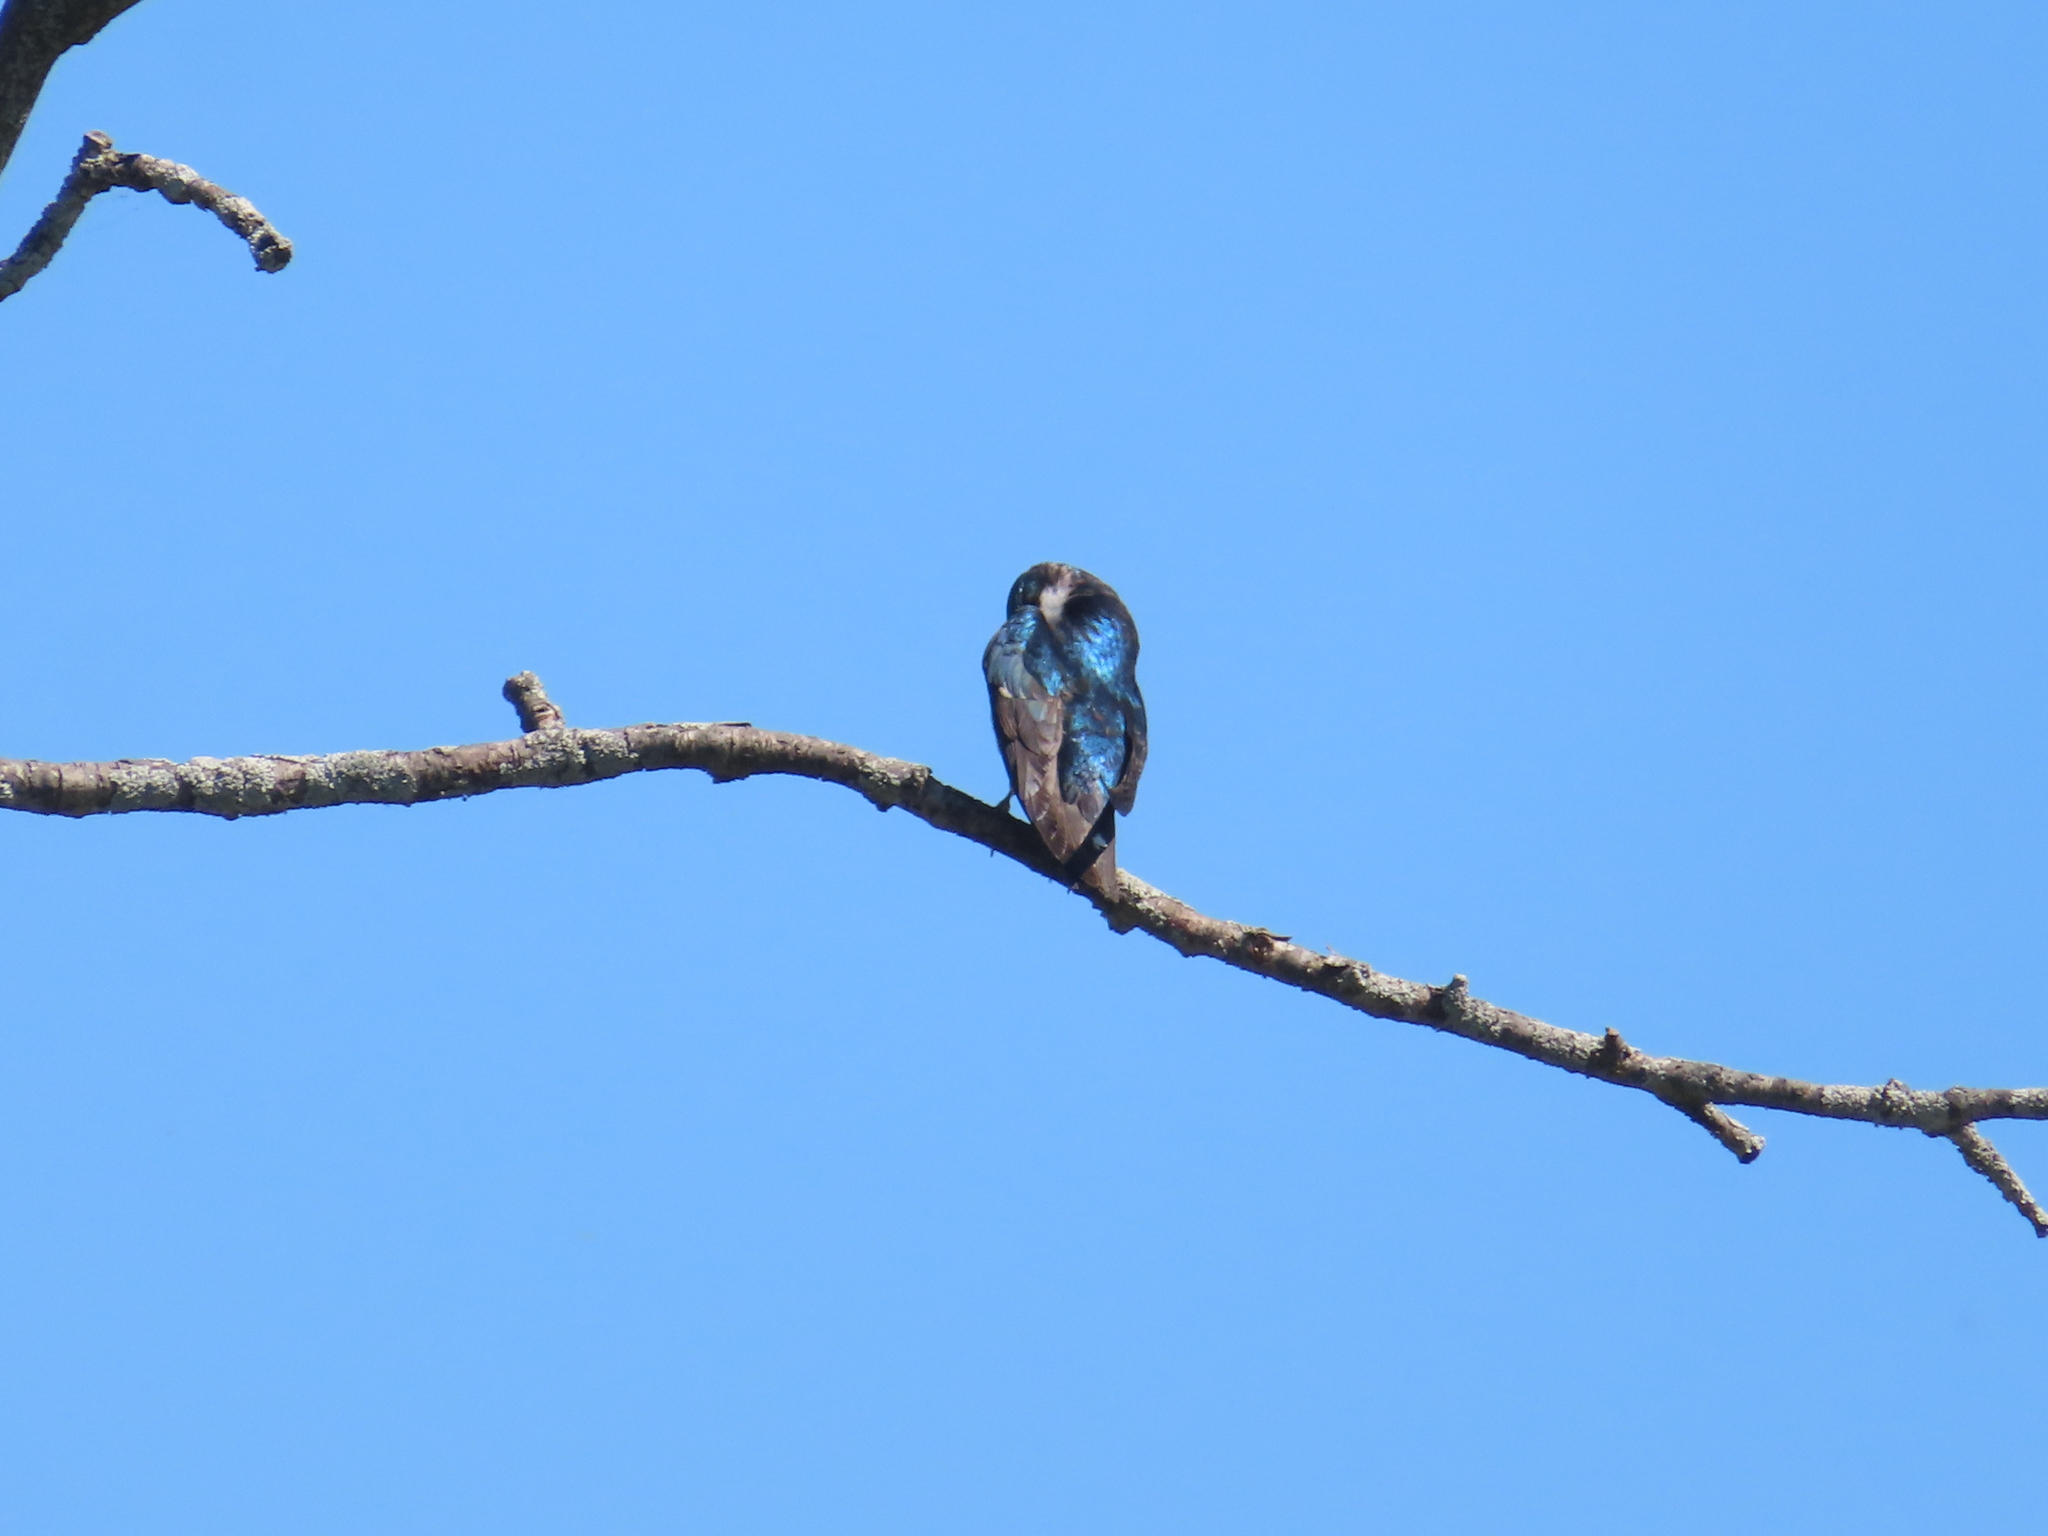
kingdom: Animalia
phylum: Chordata
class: Aves
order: Passeriformes
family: Hirundinidae
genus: Tachycineta
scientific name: Tachycineta bicolor
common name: Tree swallow
